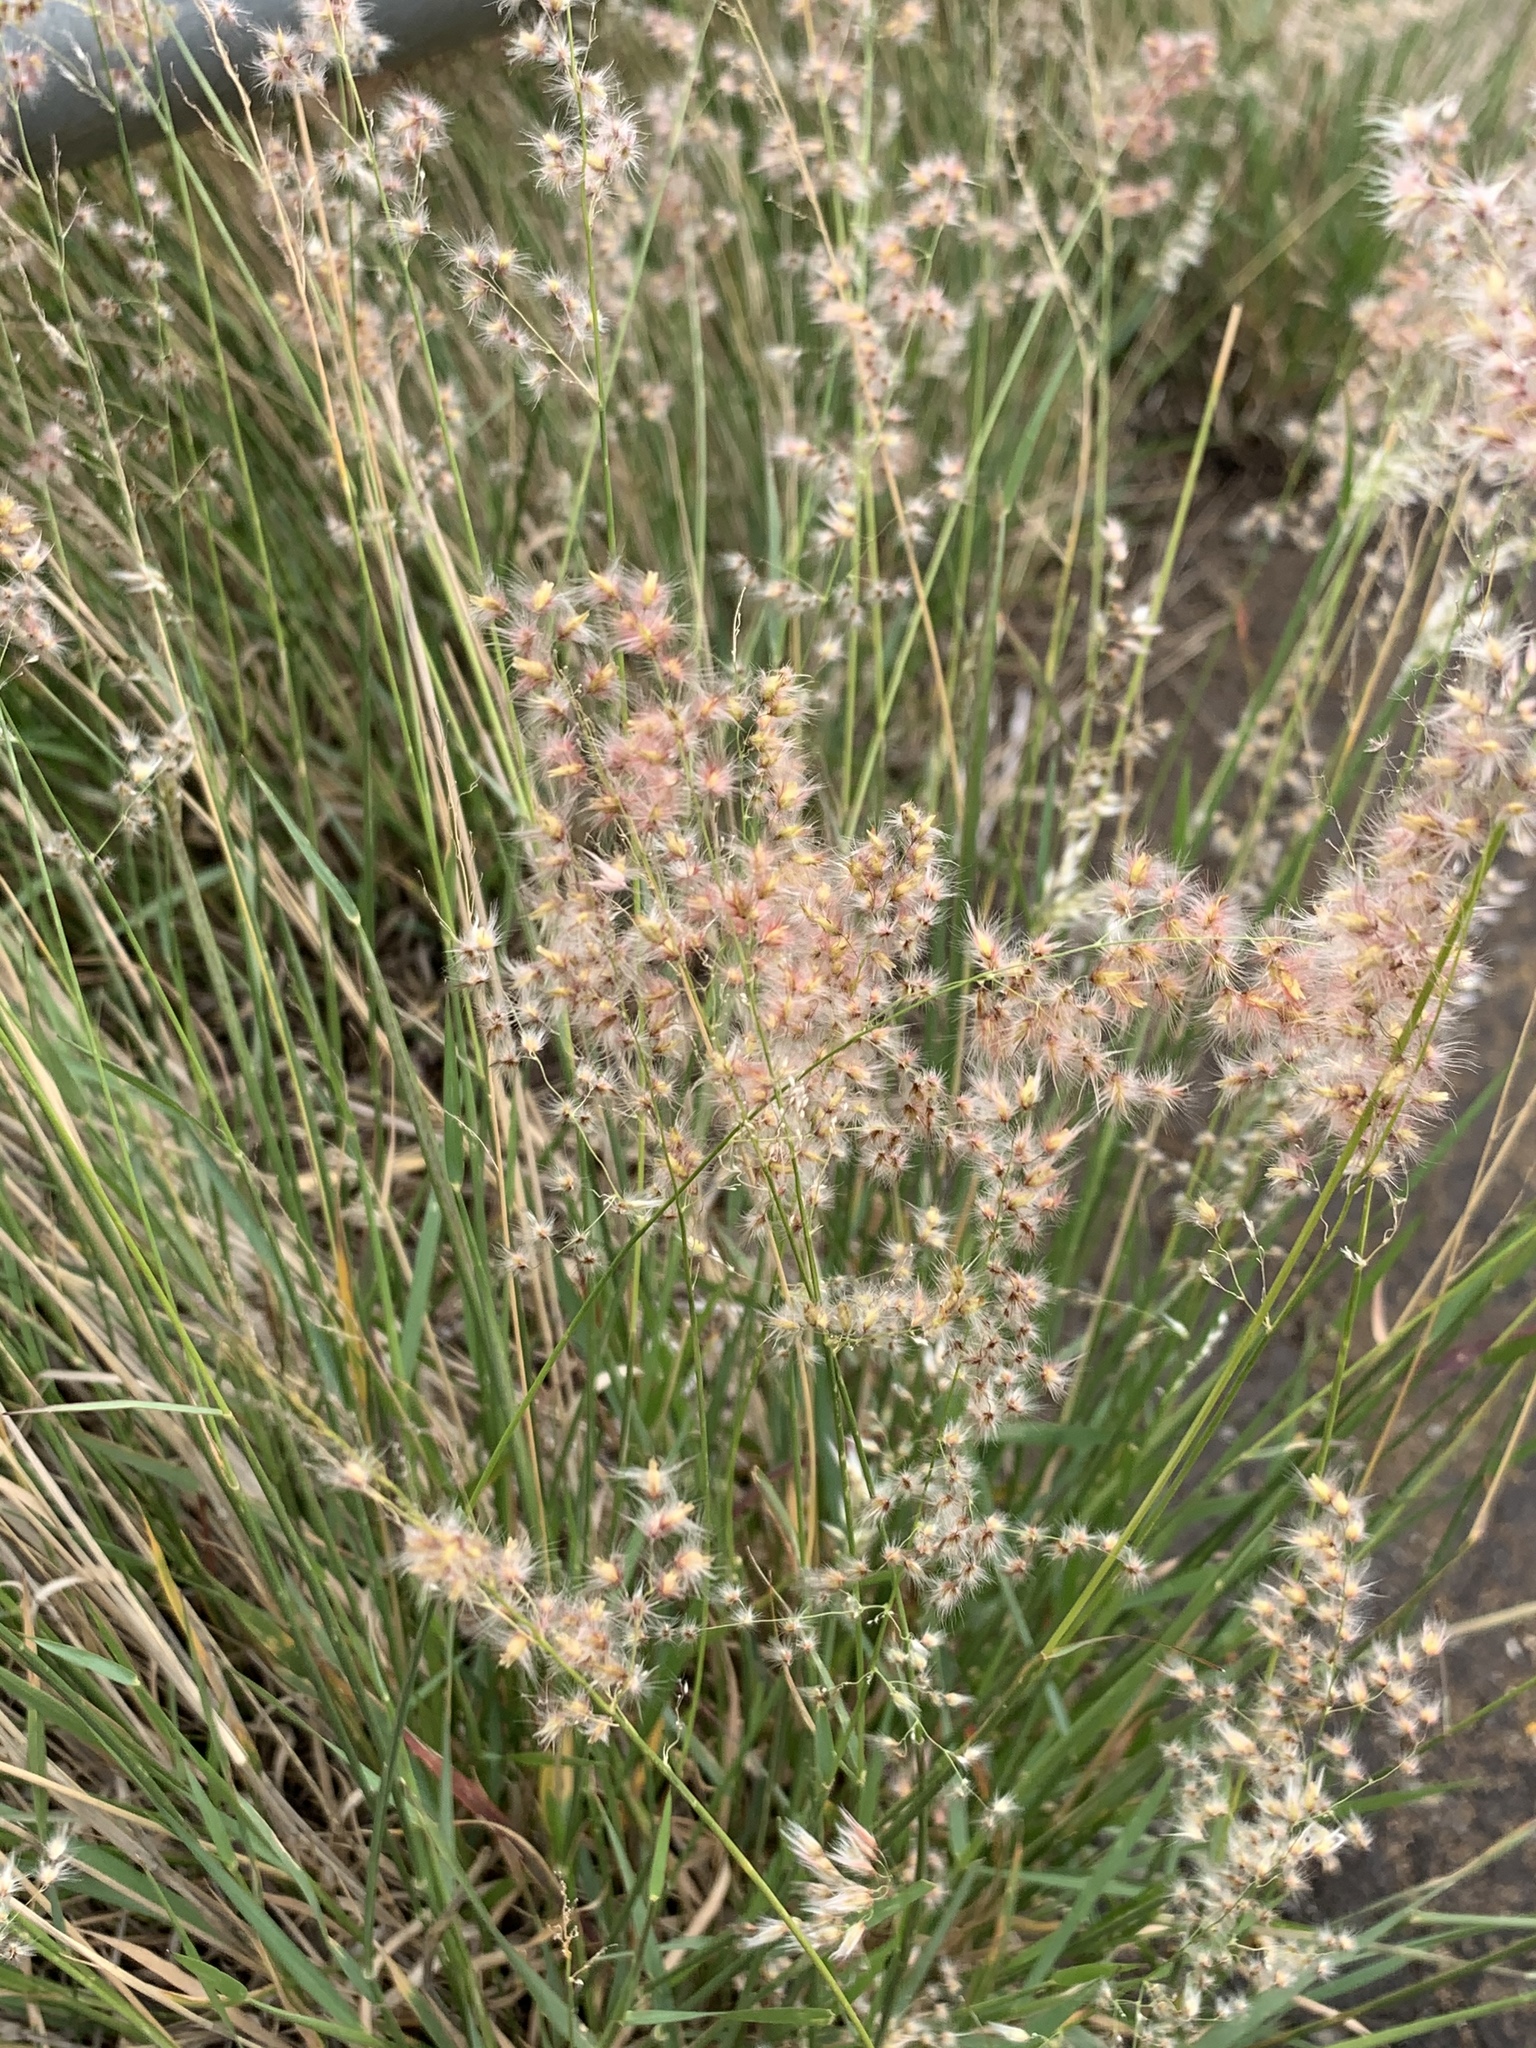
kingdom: Plantae
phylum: Tracheophyta
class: Liliopsida
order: Poales
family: Poaceae
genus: Melinis
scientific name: Melinis repens
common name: Rose natal grass
